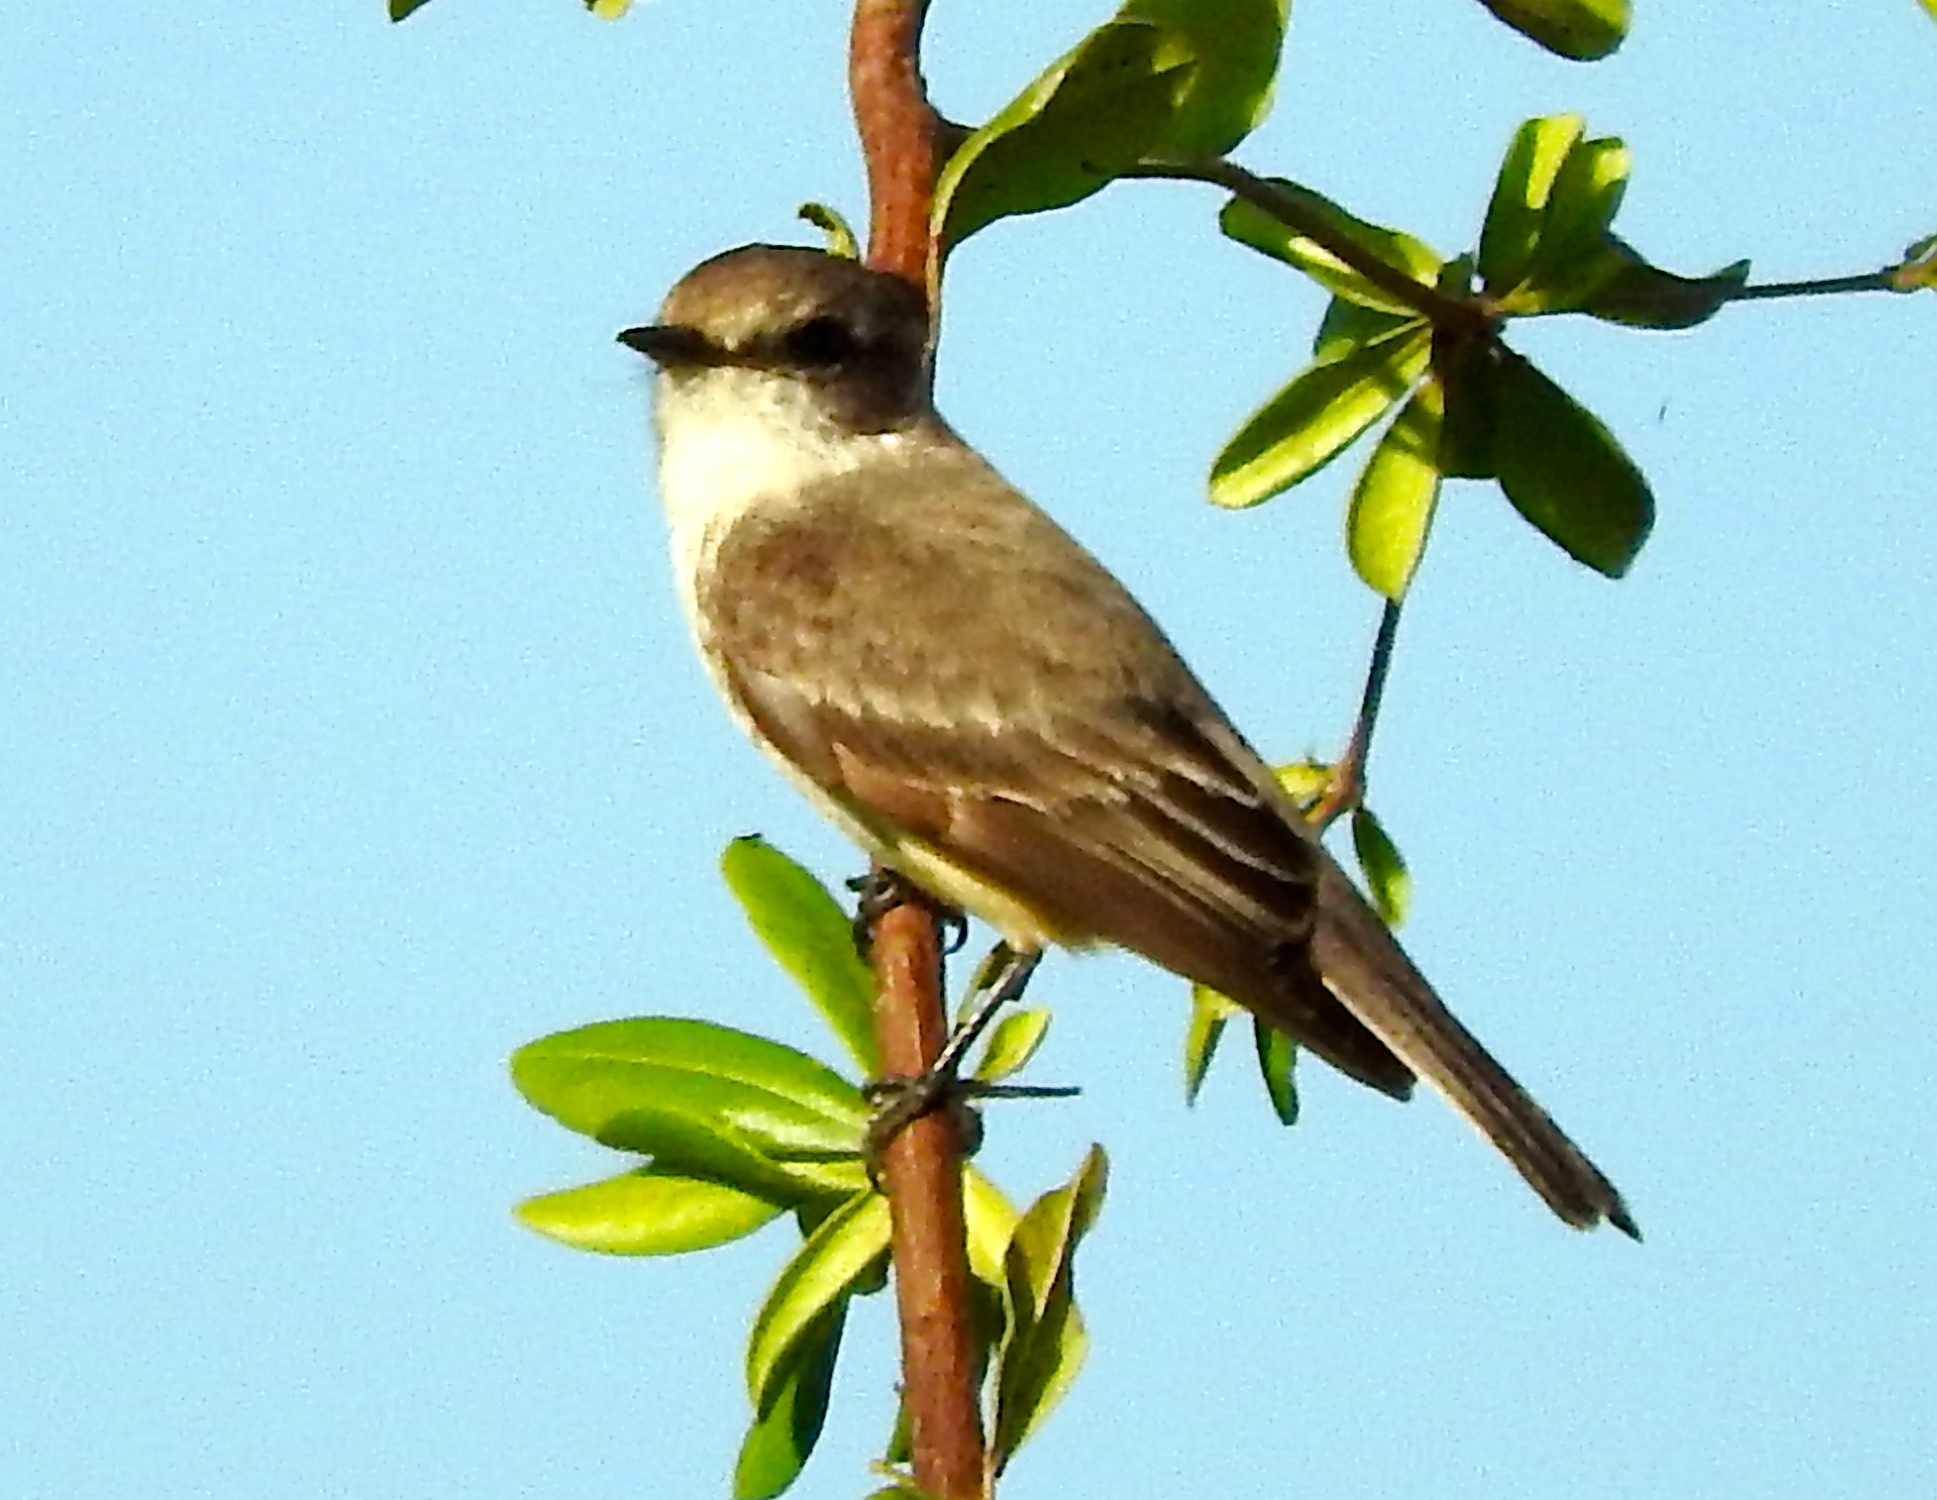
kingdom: Animalia
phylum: Chordata
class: Aves
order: Passeriformes
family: Tyrannidae
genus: Pyrocephalus
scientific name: Pyrocephalus rubinus
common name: Vermilion flycatcher
